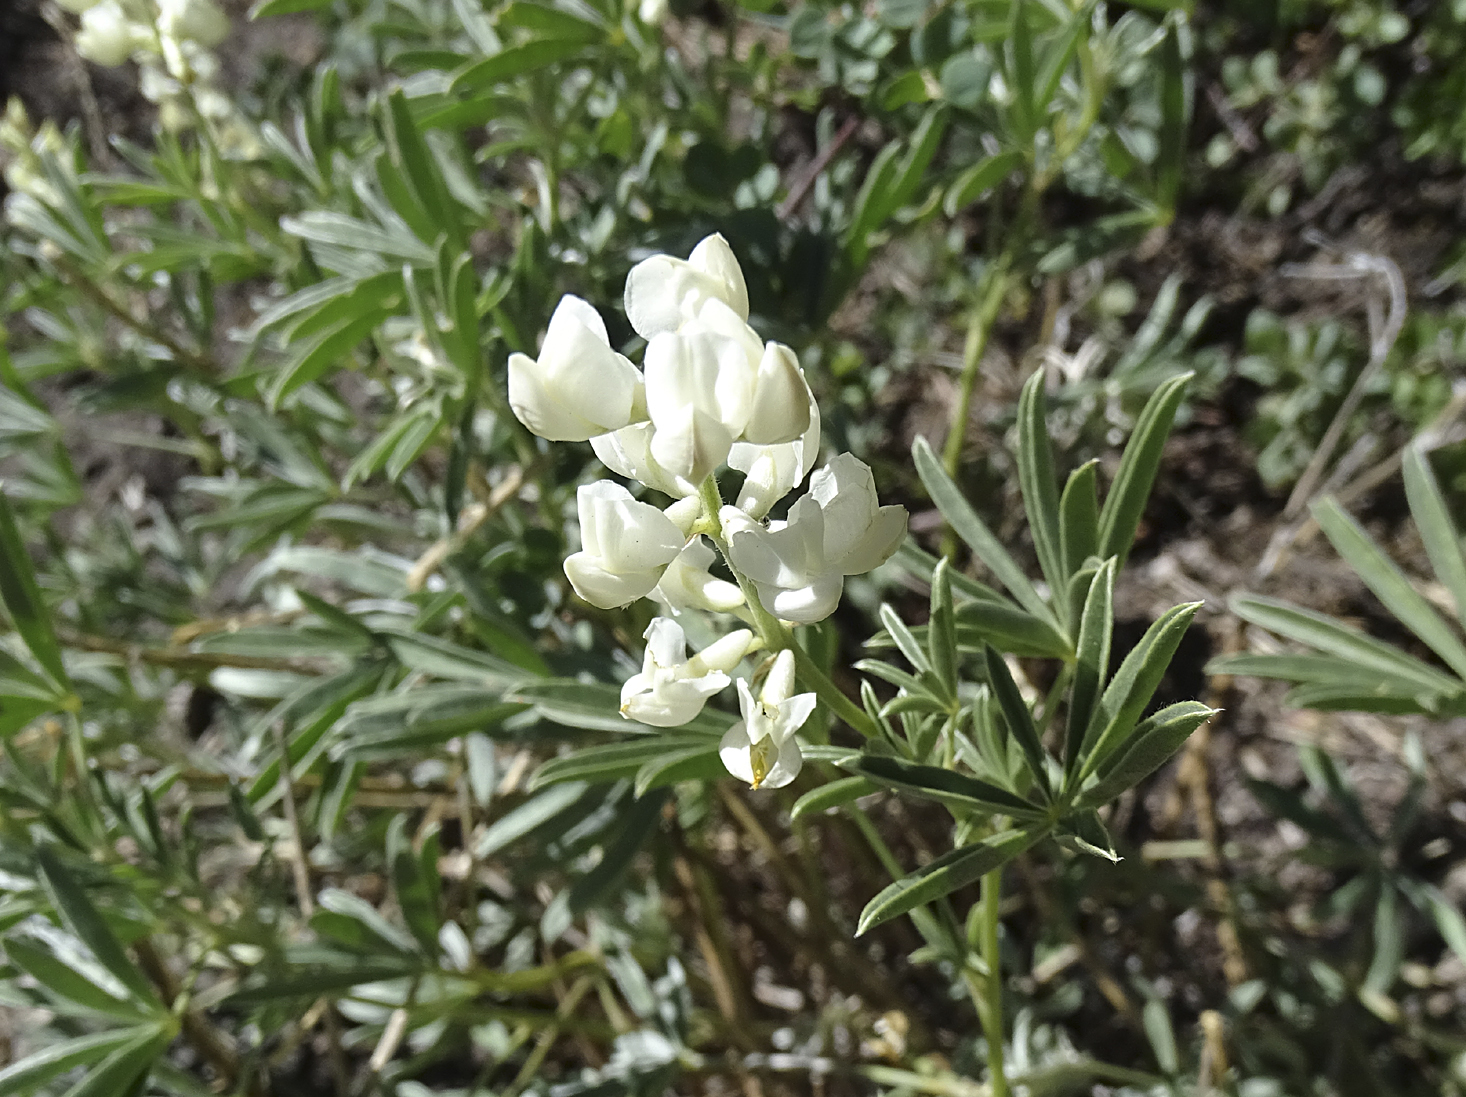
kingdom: Plantae
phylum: Tracheophyta
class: Magnoliopsida
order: Fabales
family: Fabaceae
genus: Lupinus
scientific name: Lupinus arbustus
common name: Montana lupine
